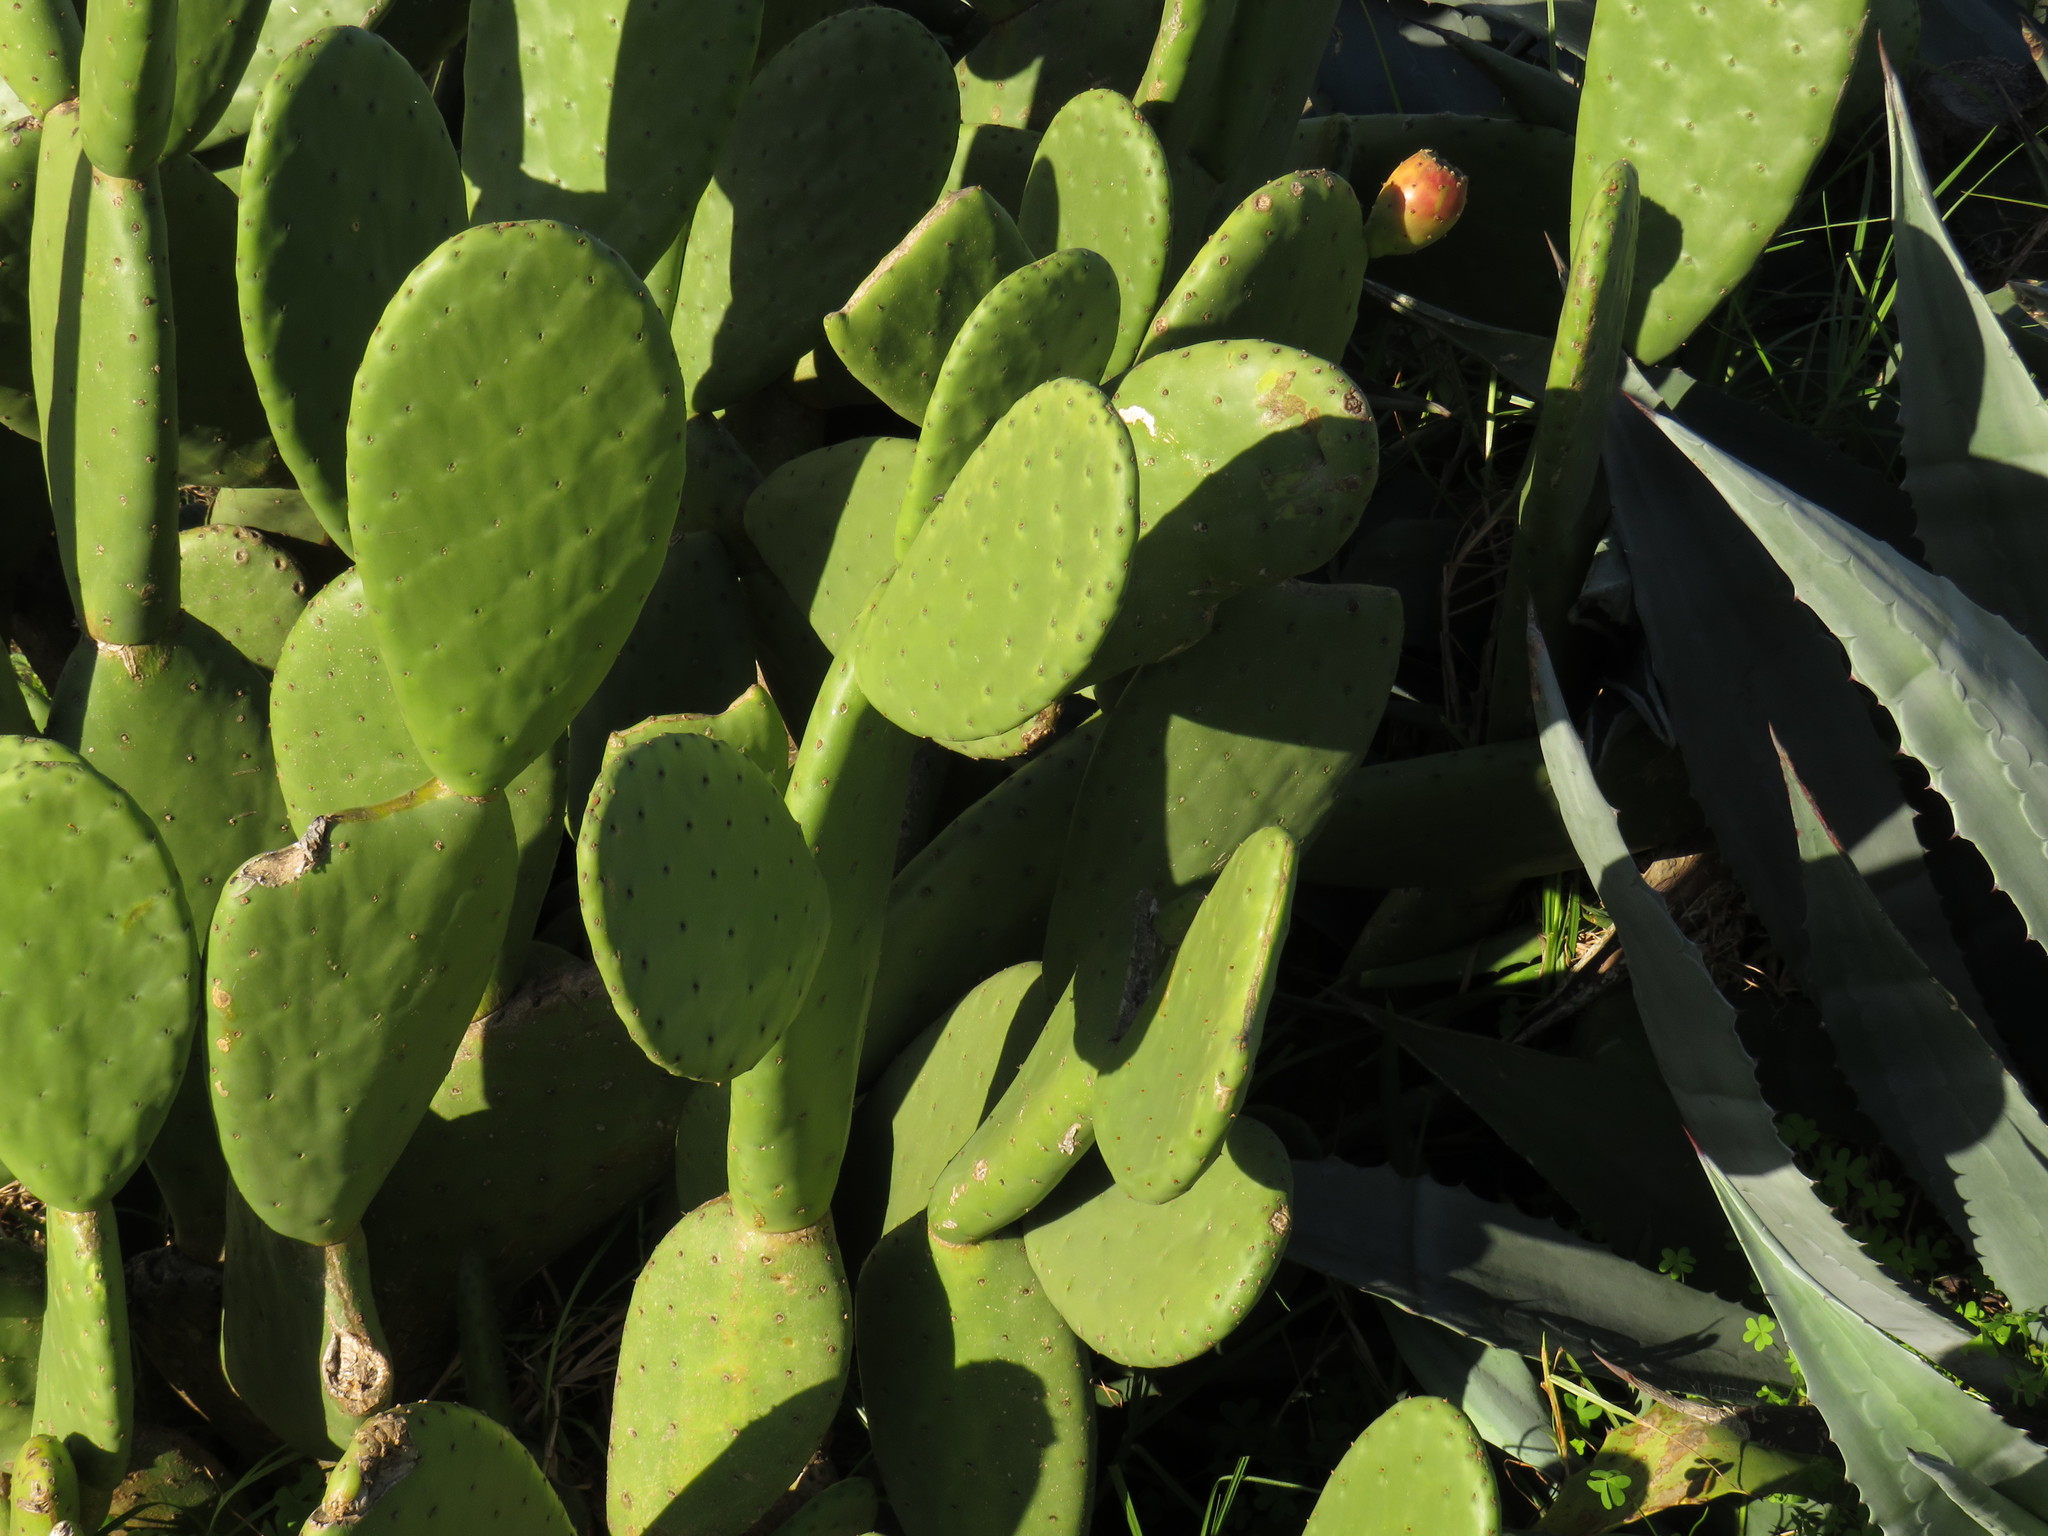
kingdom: Plantae
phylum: Tracheophyta
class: Magnoliopsida
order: Caryophyllales
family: Cactaceae
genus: Opuntia
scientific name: Opuntia ficus-indica
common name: Barbary fig
